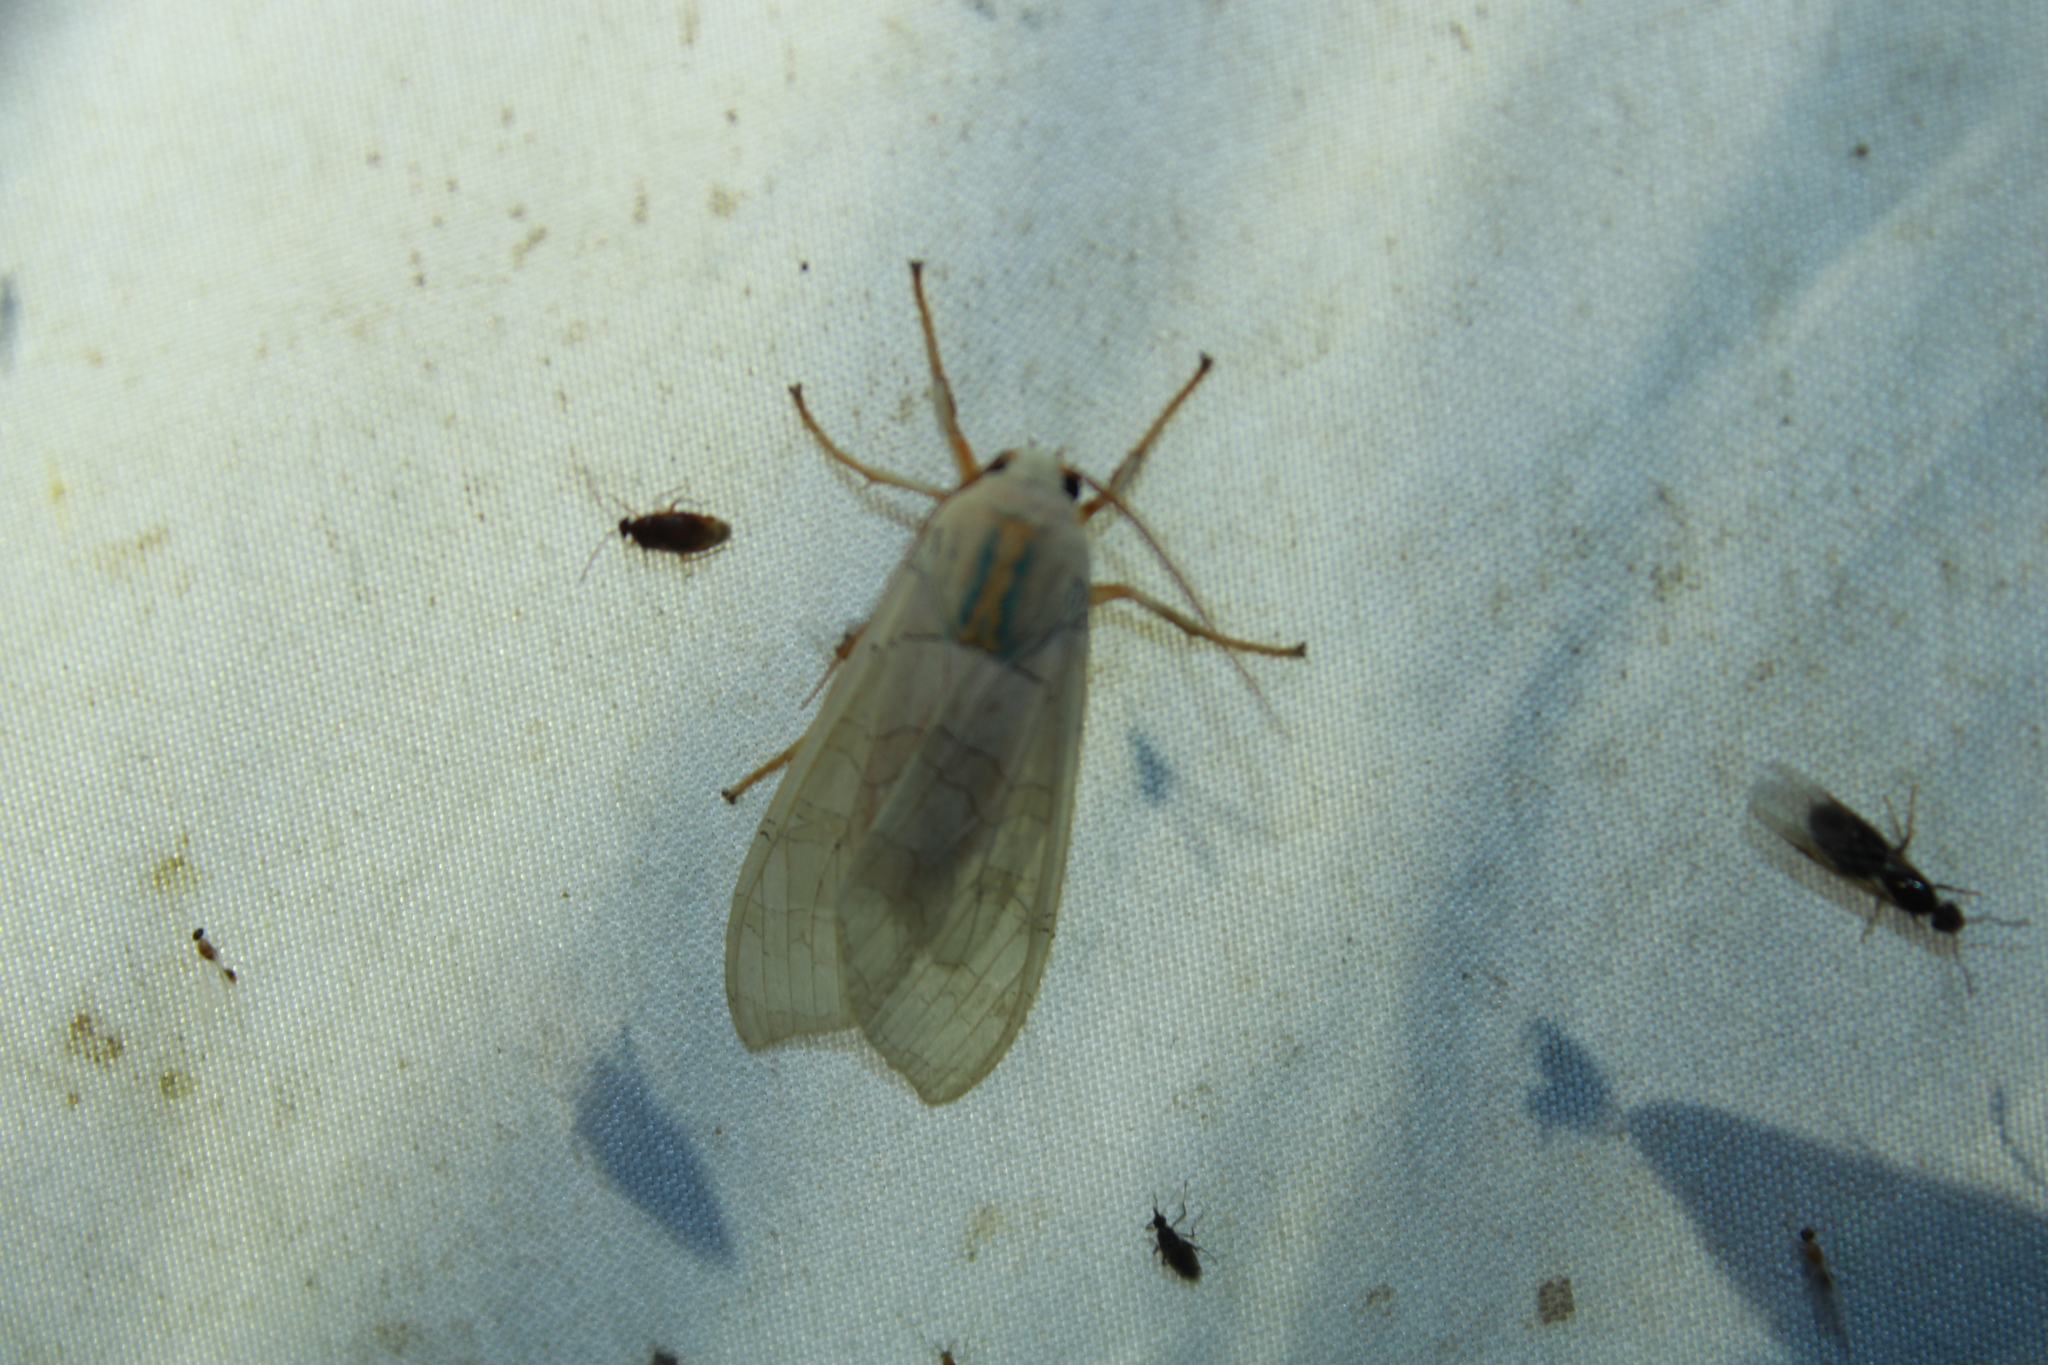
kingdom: Animalia
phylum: Arthropoda
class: Insecta
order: Lepidoptera
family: Erebidae
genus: Halysidota
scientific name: Halysidota
